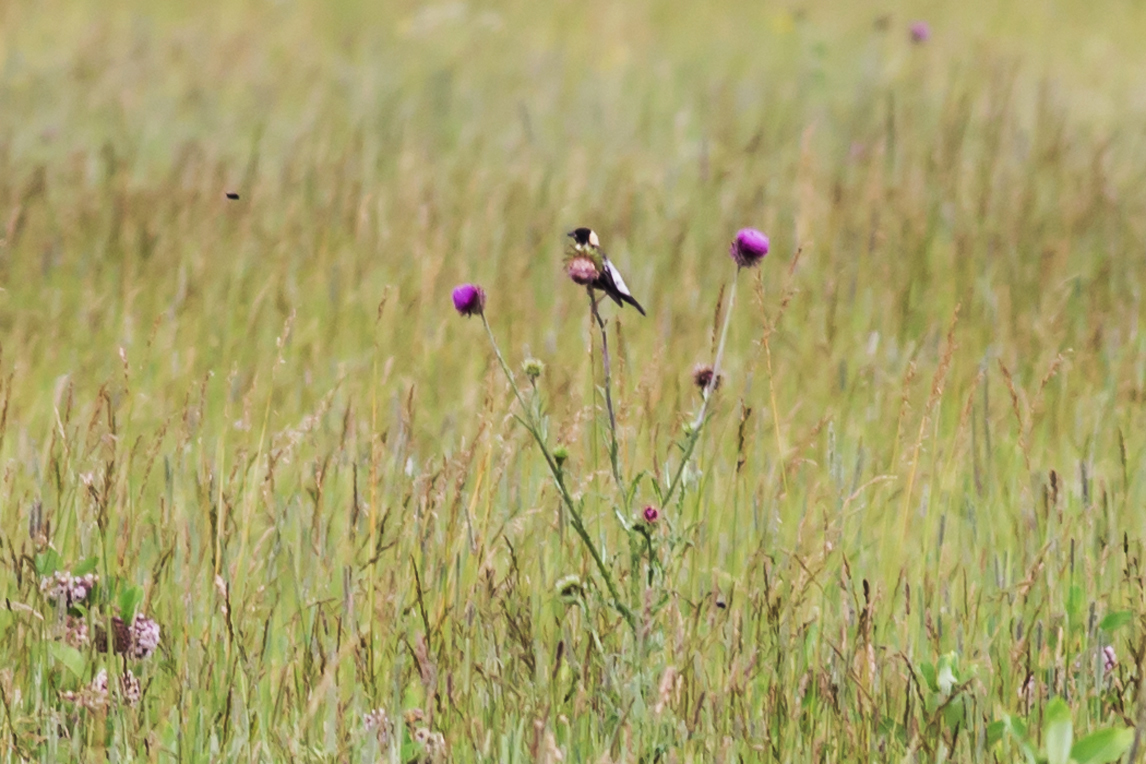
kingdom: Animalia
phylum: Chordata
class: Aves
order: Passeriformes
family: Icteridae
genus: Dolichonyx
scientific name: Dolichonyx oryzivorus
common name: Bobolink
